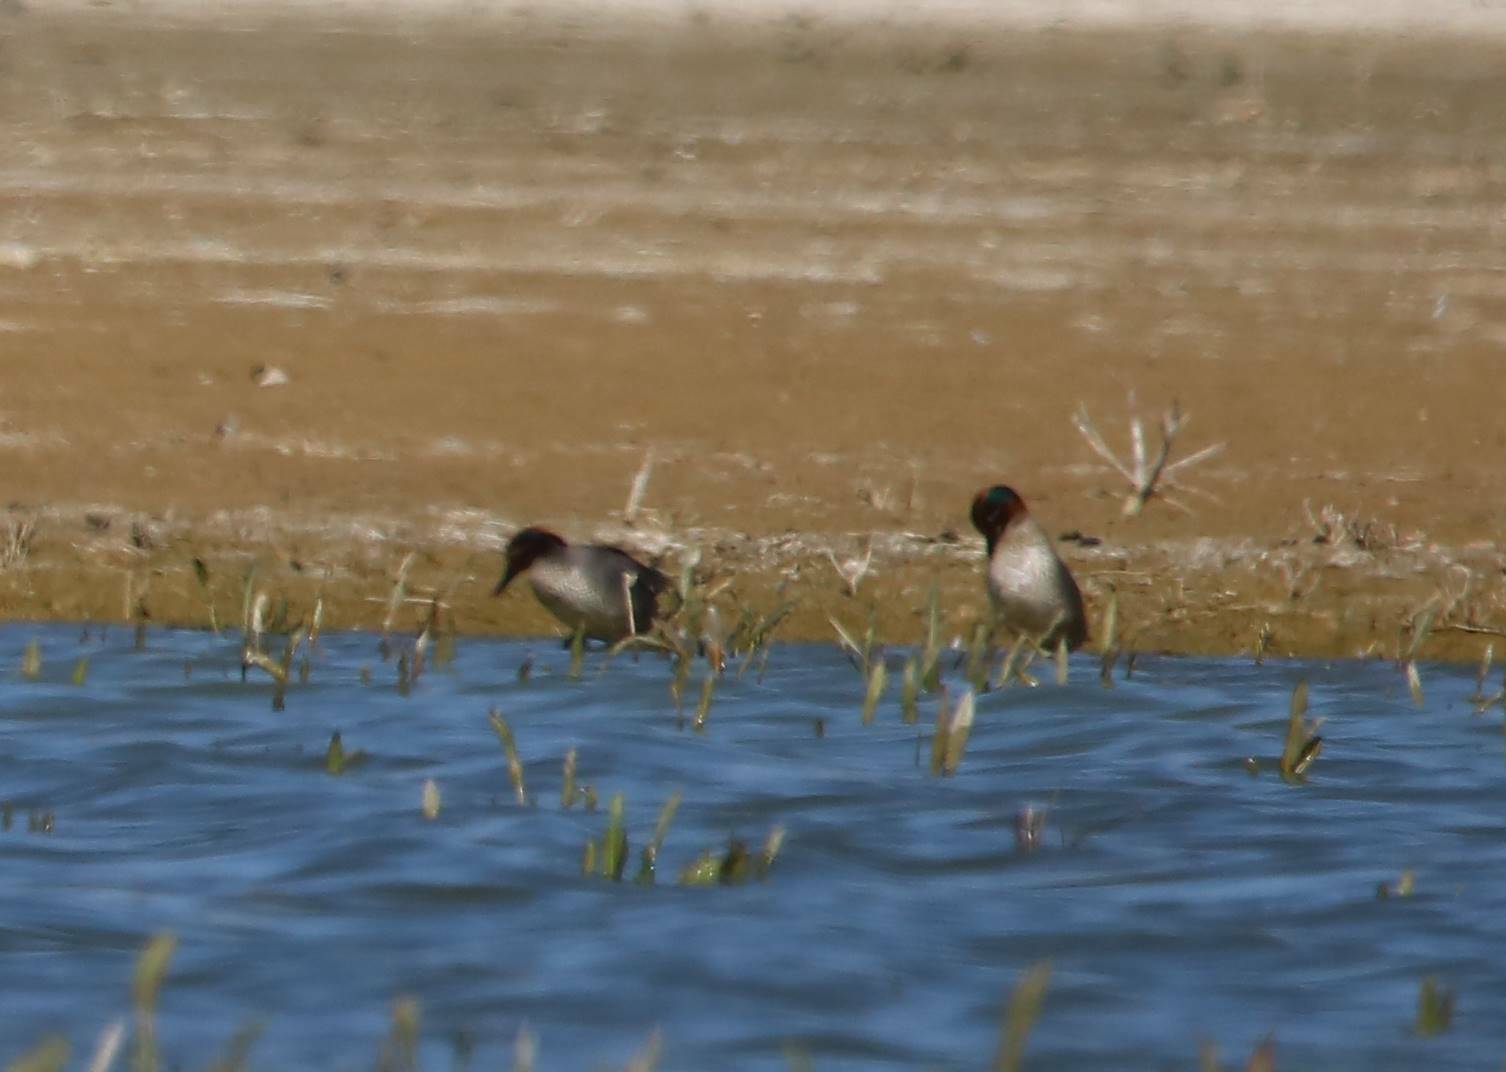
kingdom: Animalia
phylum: Chordata
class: Aves
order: Anseriformes
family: Anatidae
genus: Anas
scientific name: Anas crecca
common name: Eurasian teal
